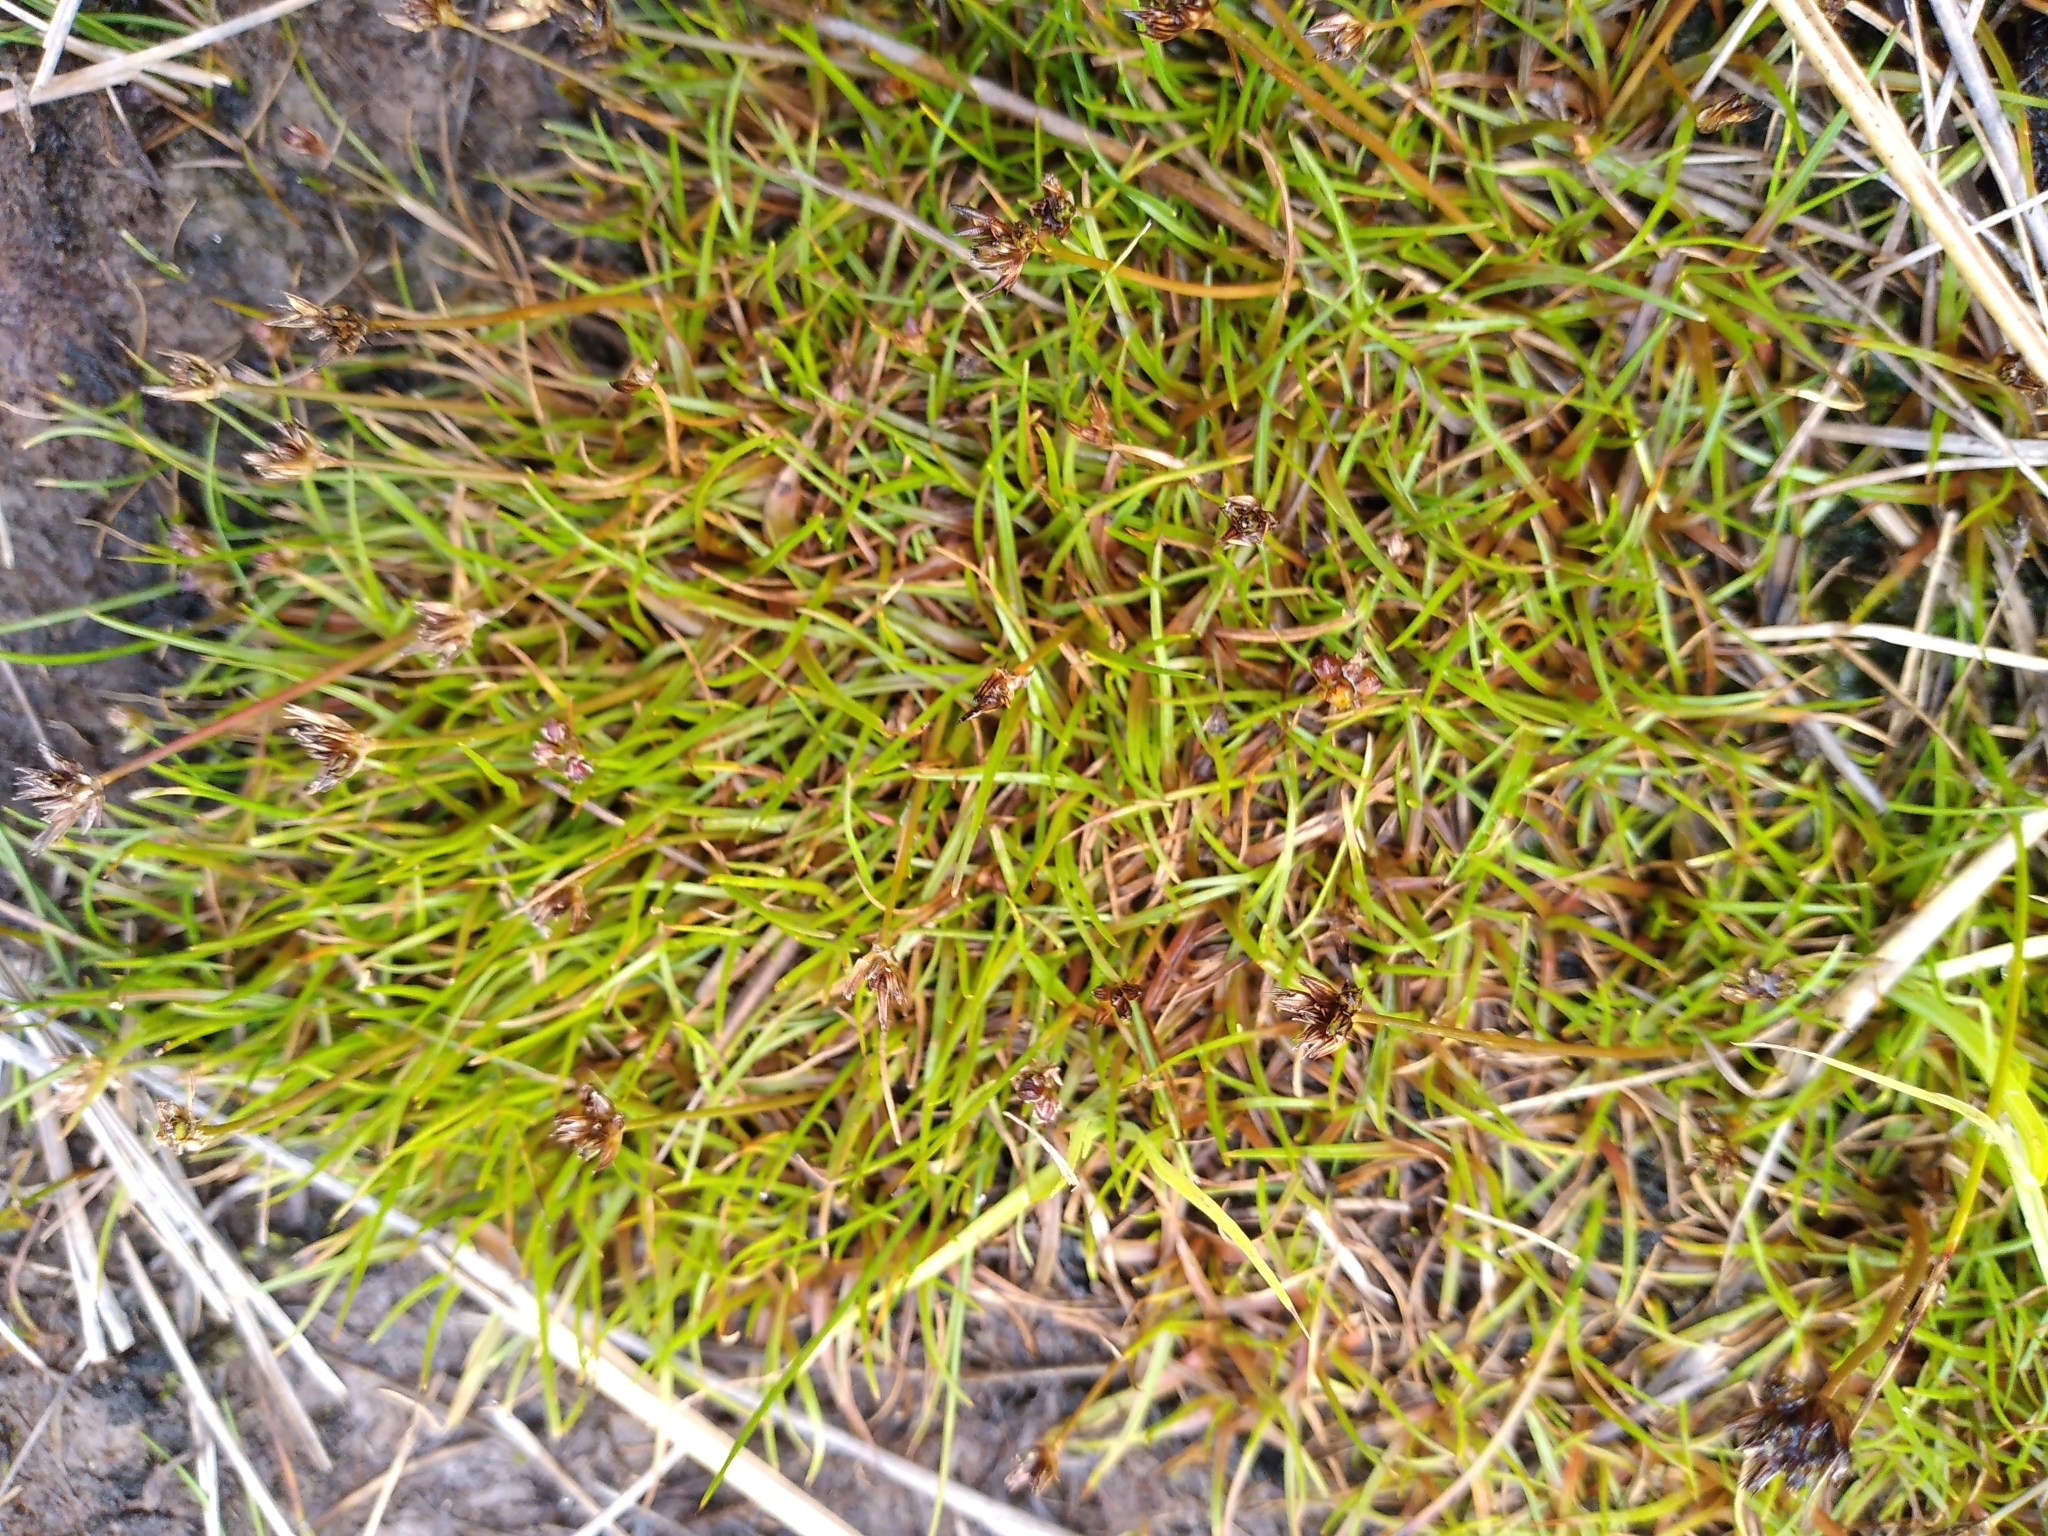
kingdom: Plantae
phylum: Tracheophyta
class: Liliopsida
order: Poales
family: Juncaceae
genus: Juncus
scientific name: Juncus antarcticus
